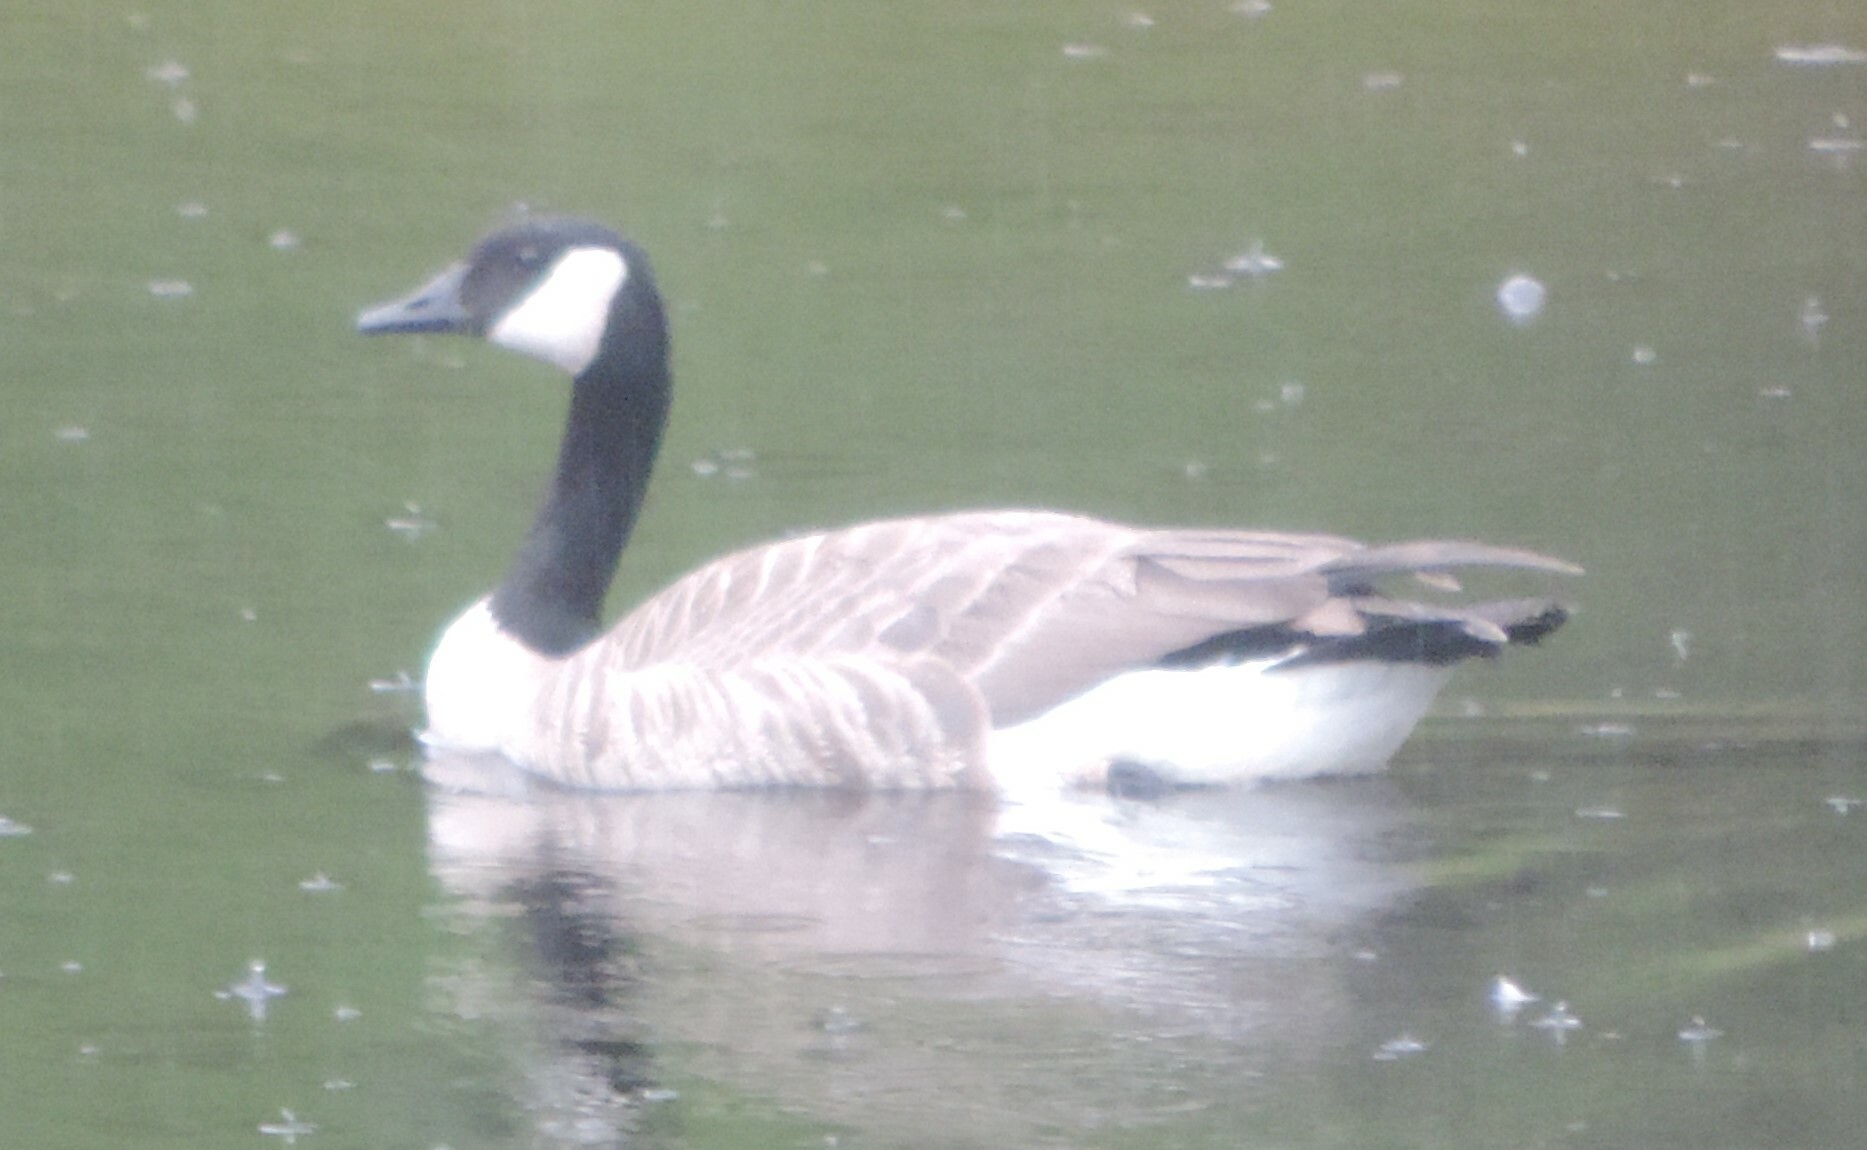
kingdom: Animalia
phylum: Chordata
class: Aves
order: Anseriformes
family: Anatidae
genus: Branta
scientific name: Branta canadensis
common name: Canada goose
